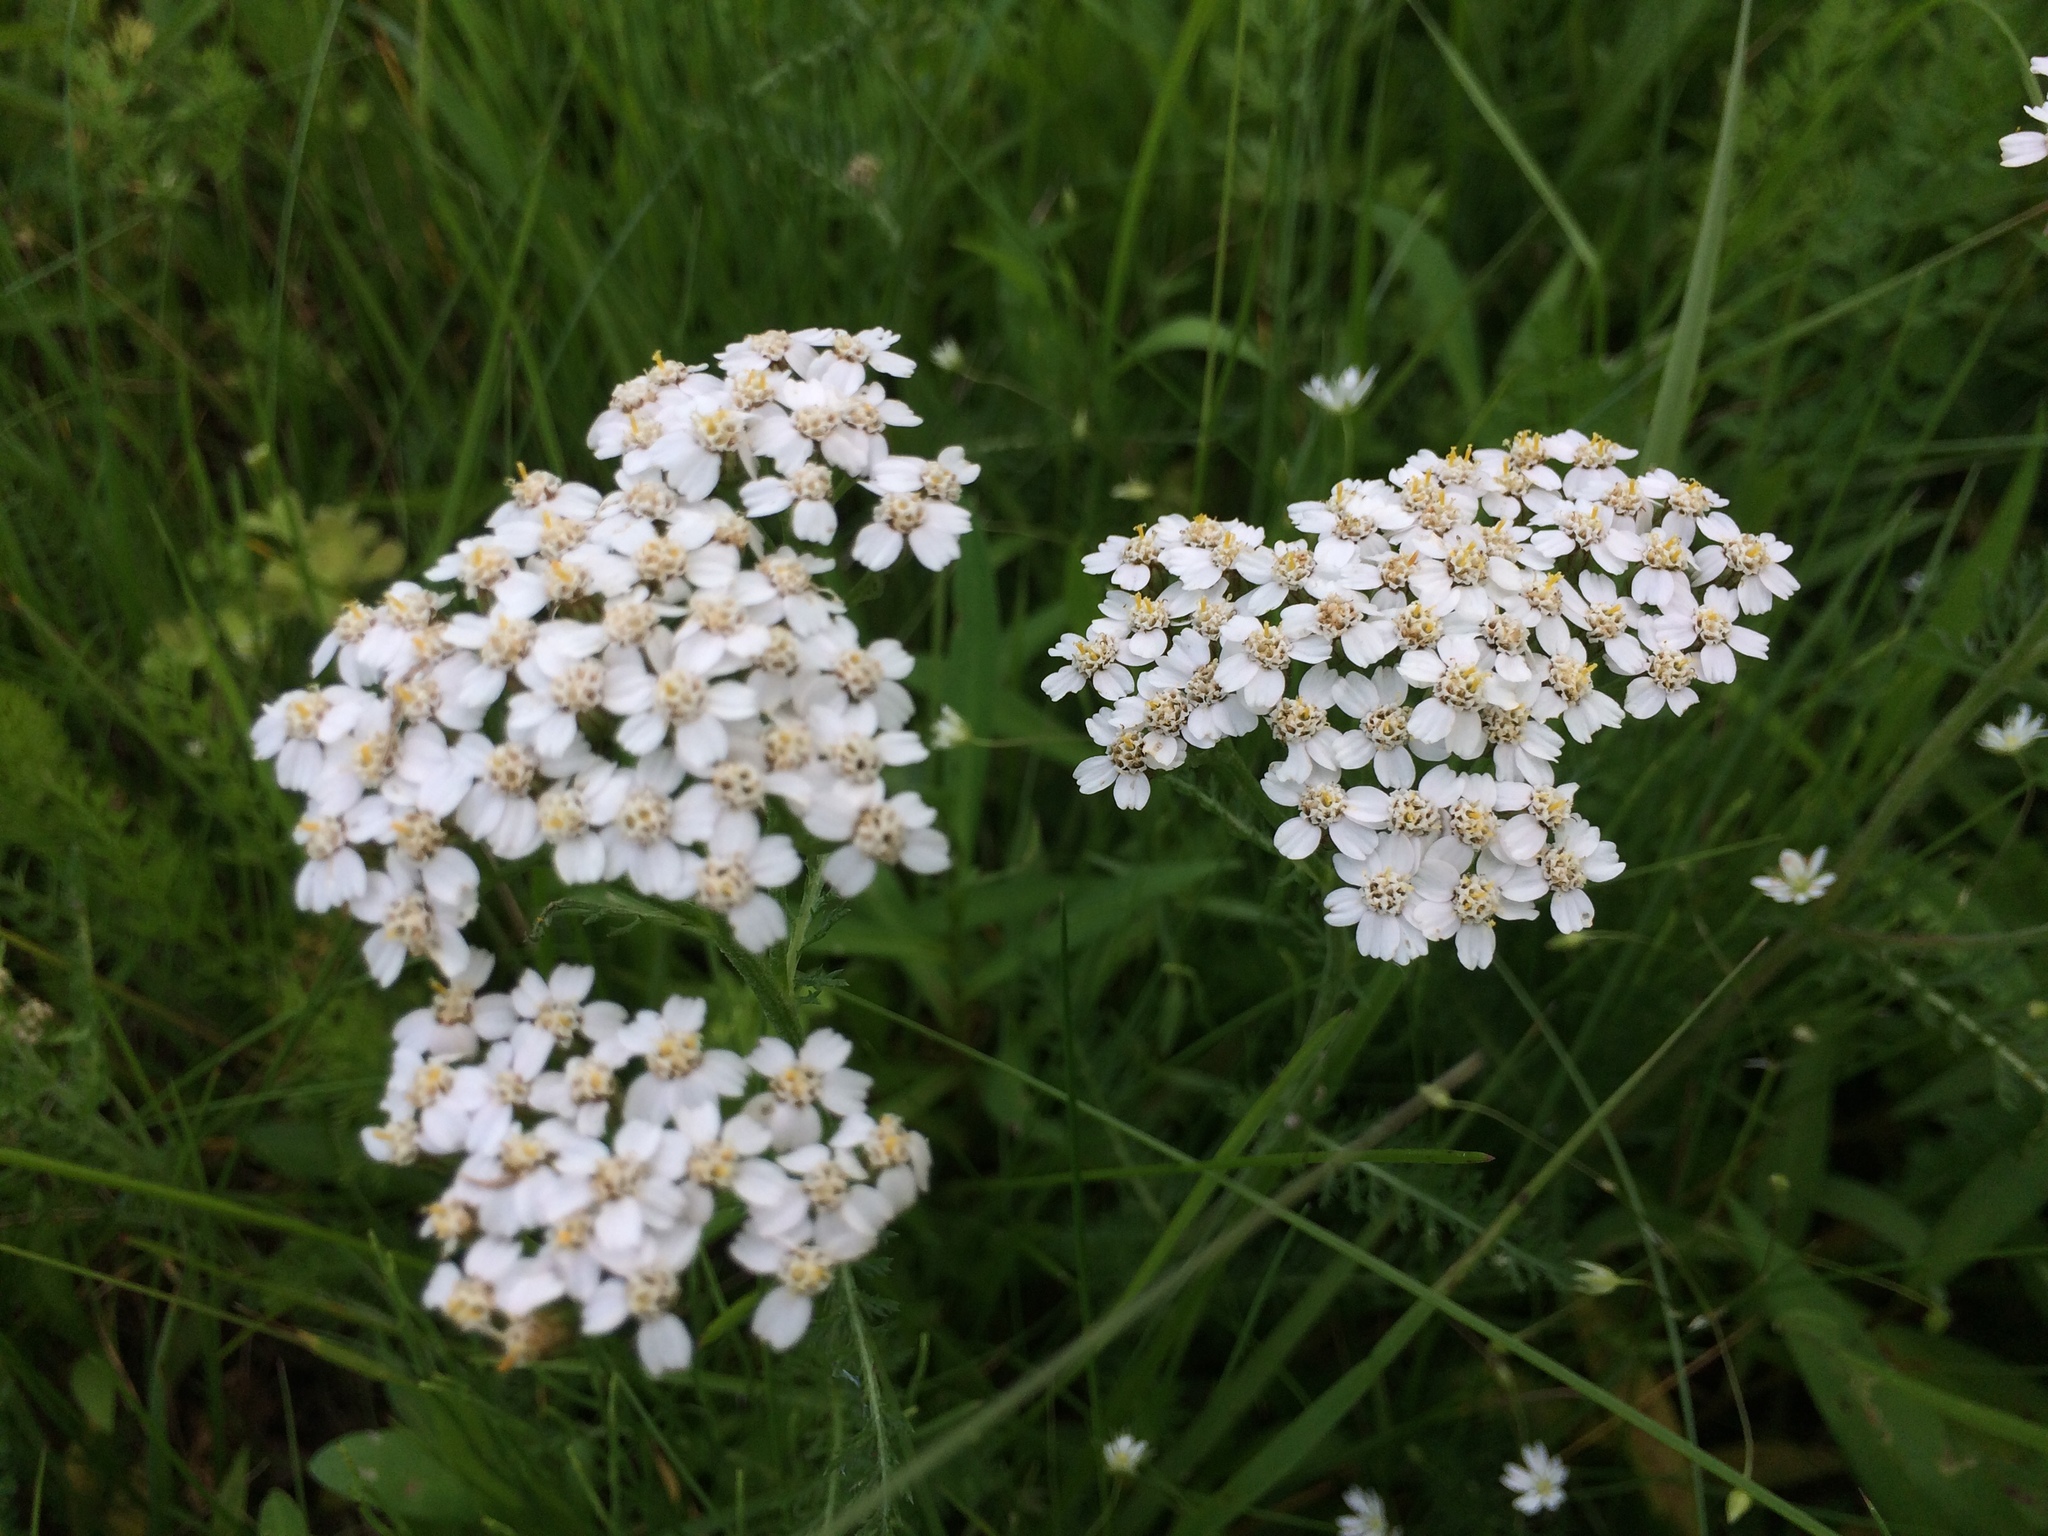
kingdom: Plantae
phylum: Tracheophyta
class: Magnoliopsida
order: Asterales
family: Asteraceae
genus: Achillea
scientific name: Achillea millefolium
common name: Yarrow
